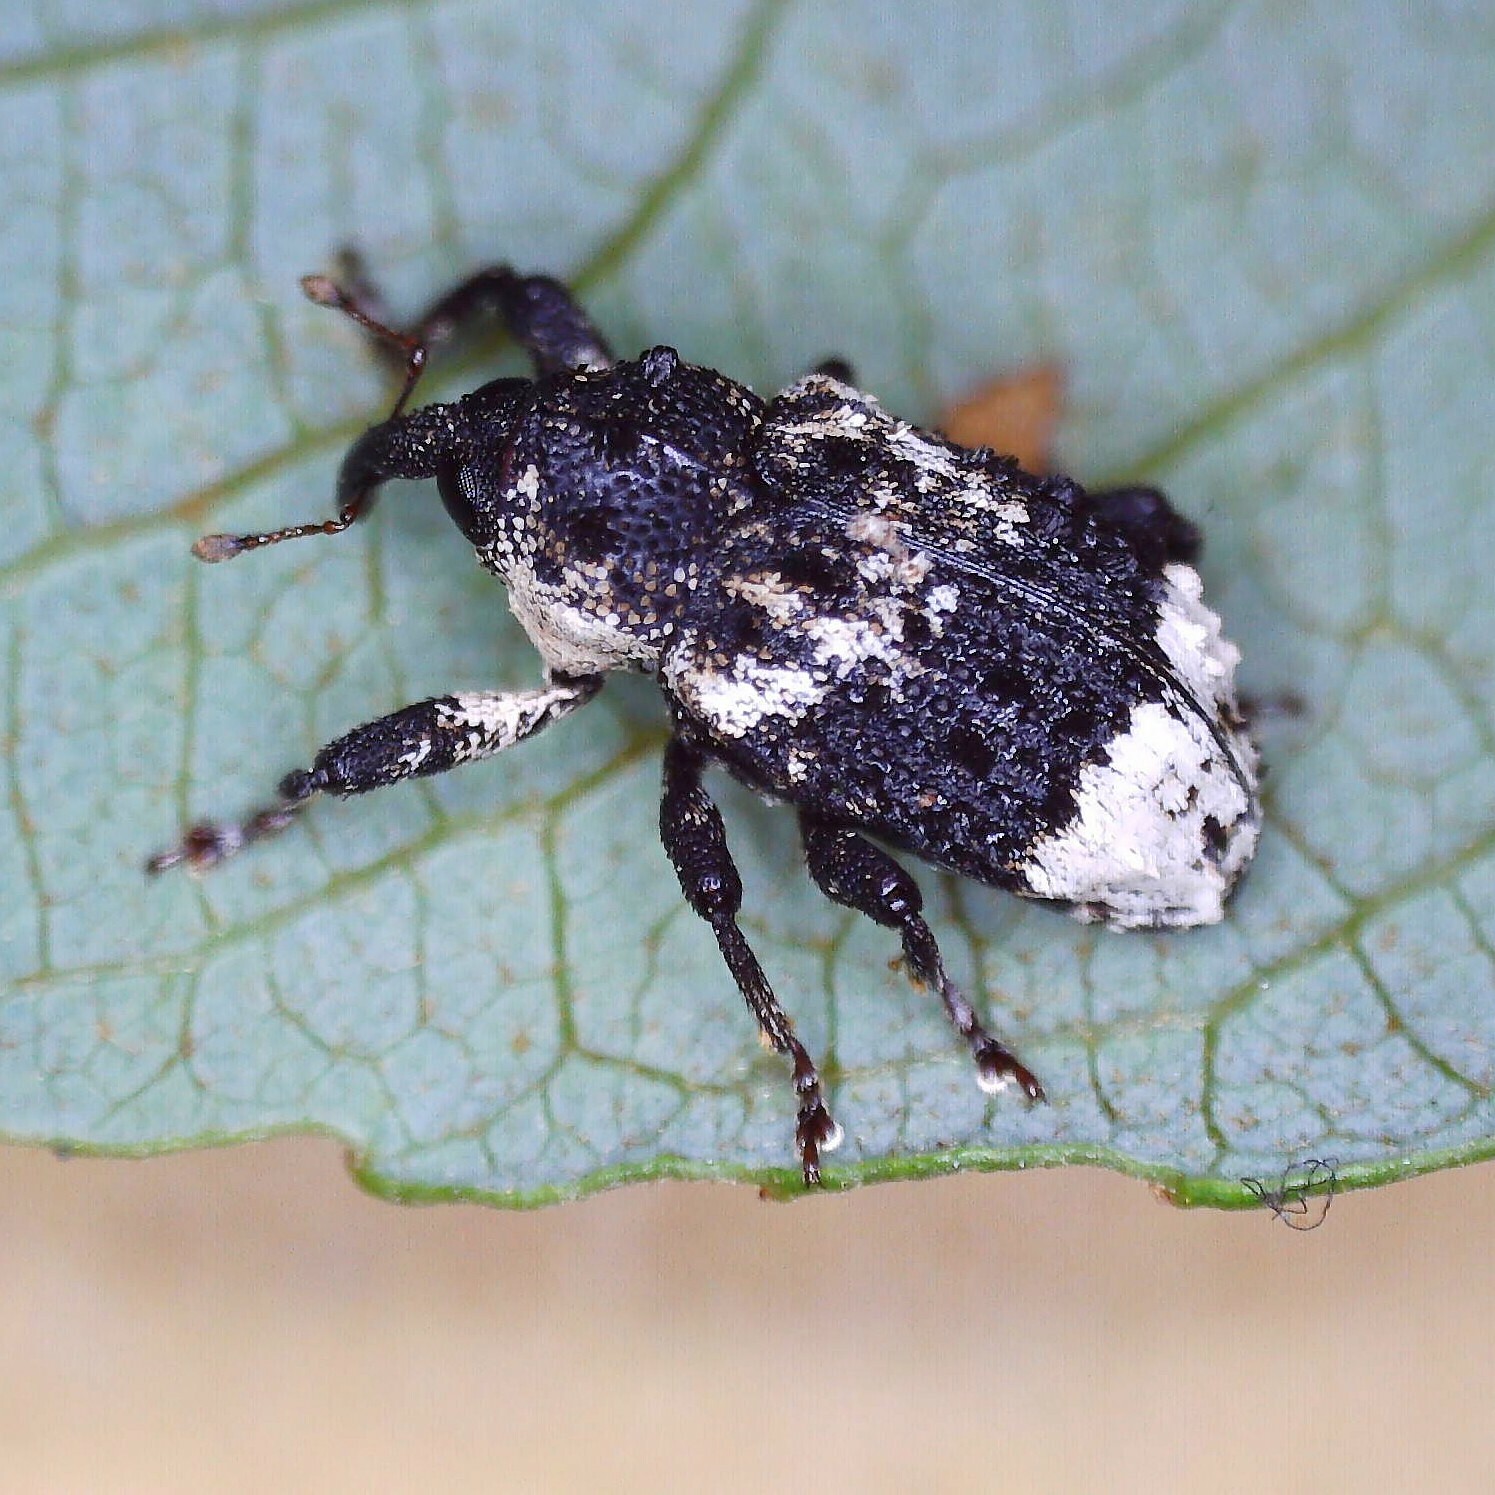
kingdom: Animalia
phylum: Arthropoda
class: Insecta
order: Coleoptera
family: Curculionidae
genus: Cryptorhynchus
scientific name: Cryptorhynchus lapathi
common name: Weevil
